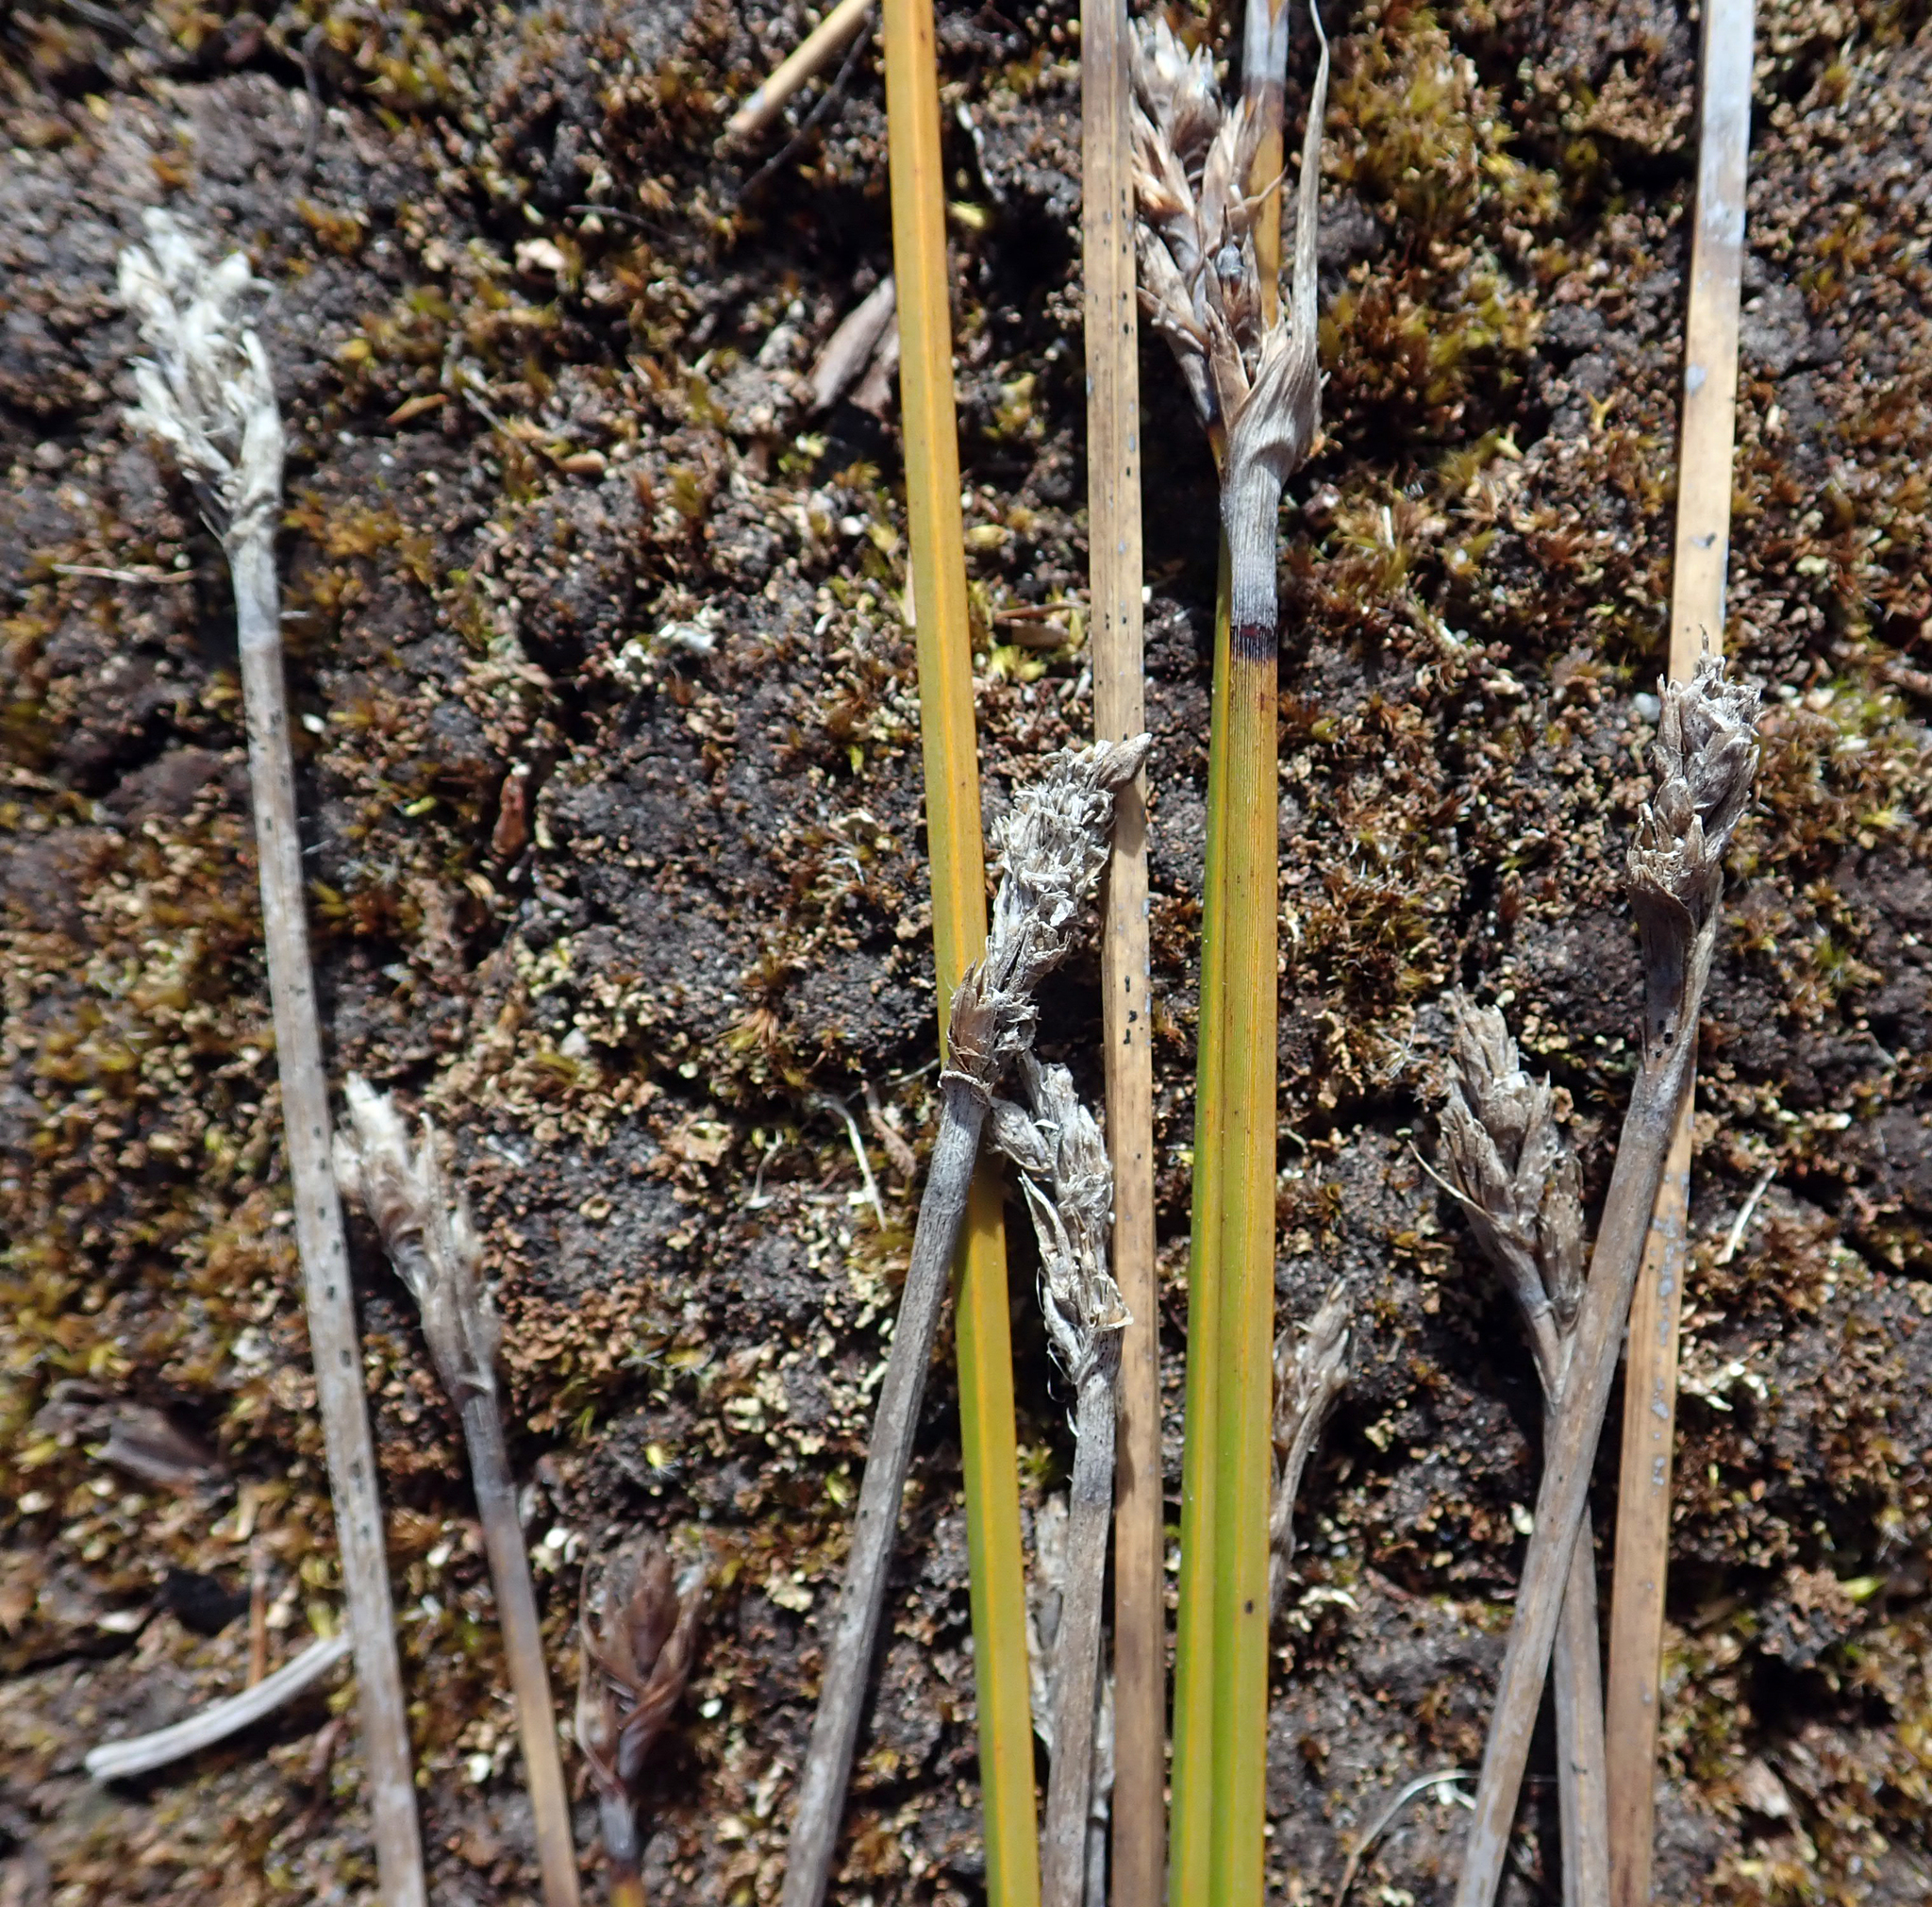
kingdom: Plantae
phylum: Tracheophyta
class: Liliopsida
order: Poales
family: Cyperaceae
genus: Lepidosperma
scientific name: Lepidosperma australe
